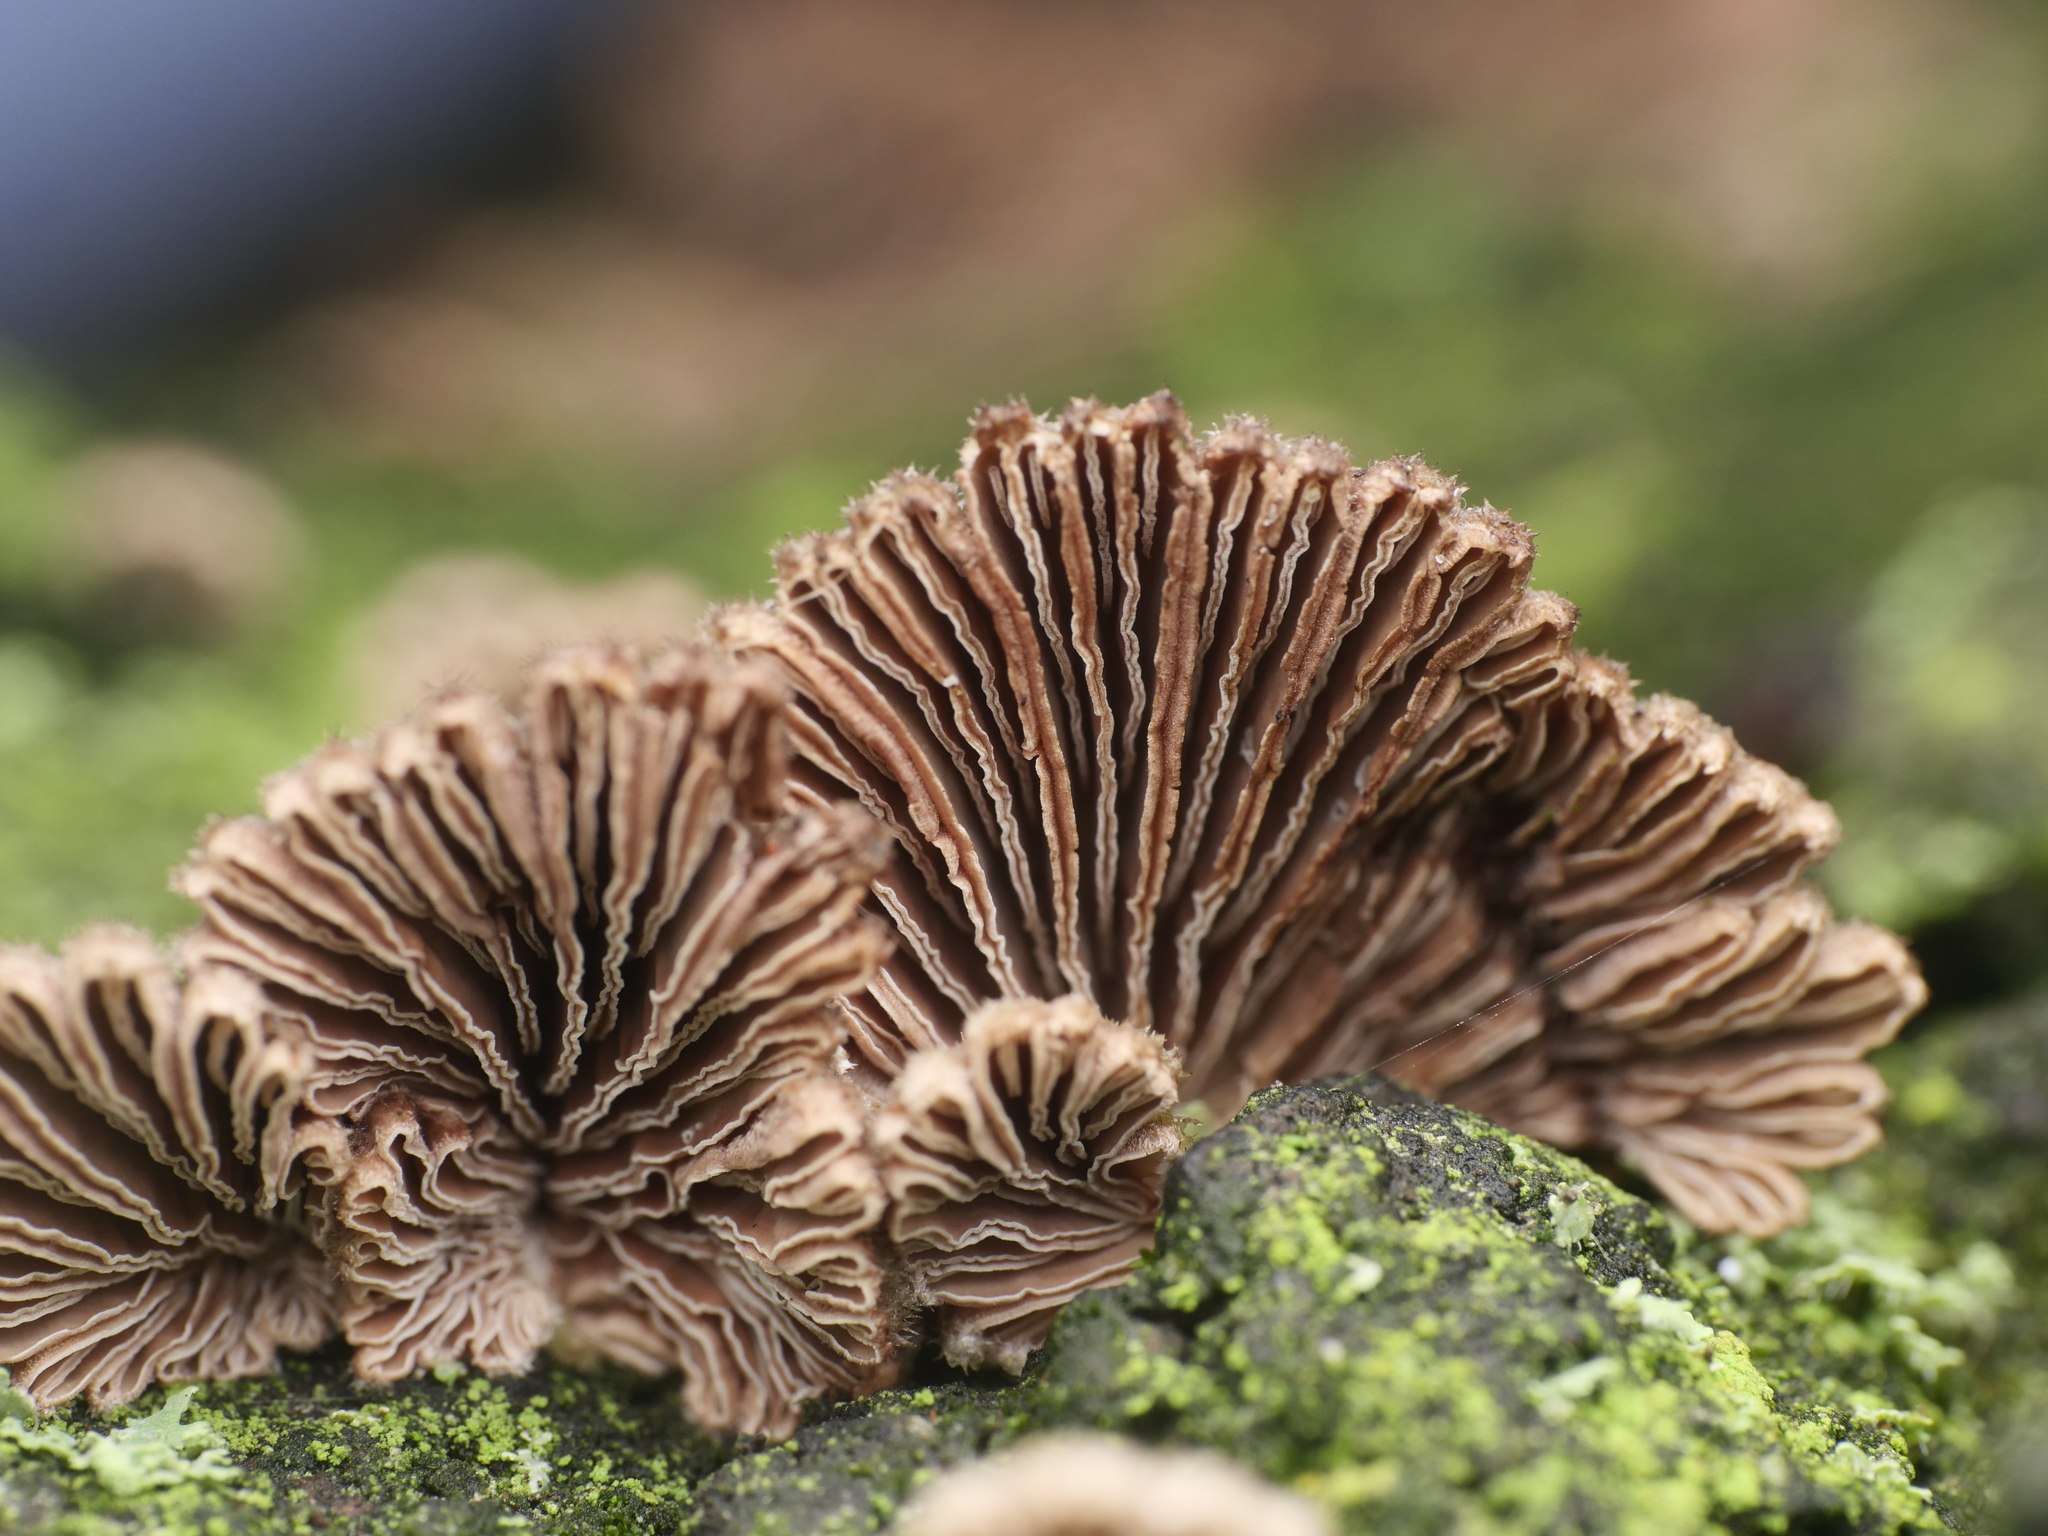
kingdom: Fungi
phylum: Basidiomycota
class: Agaricomycetes
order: Agaricales
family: Schizophyllaceae
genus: Schizophyllum
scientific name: Schizophyllum commune
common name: Common porecrust
